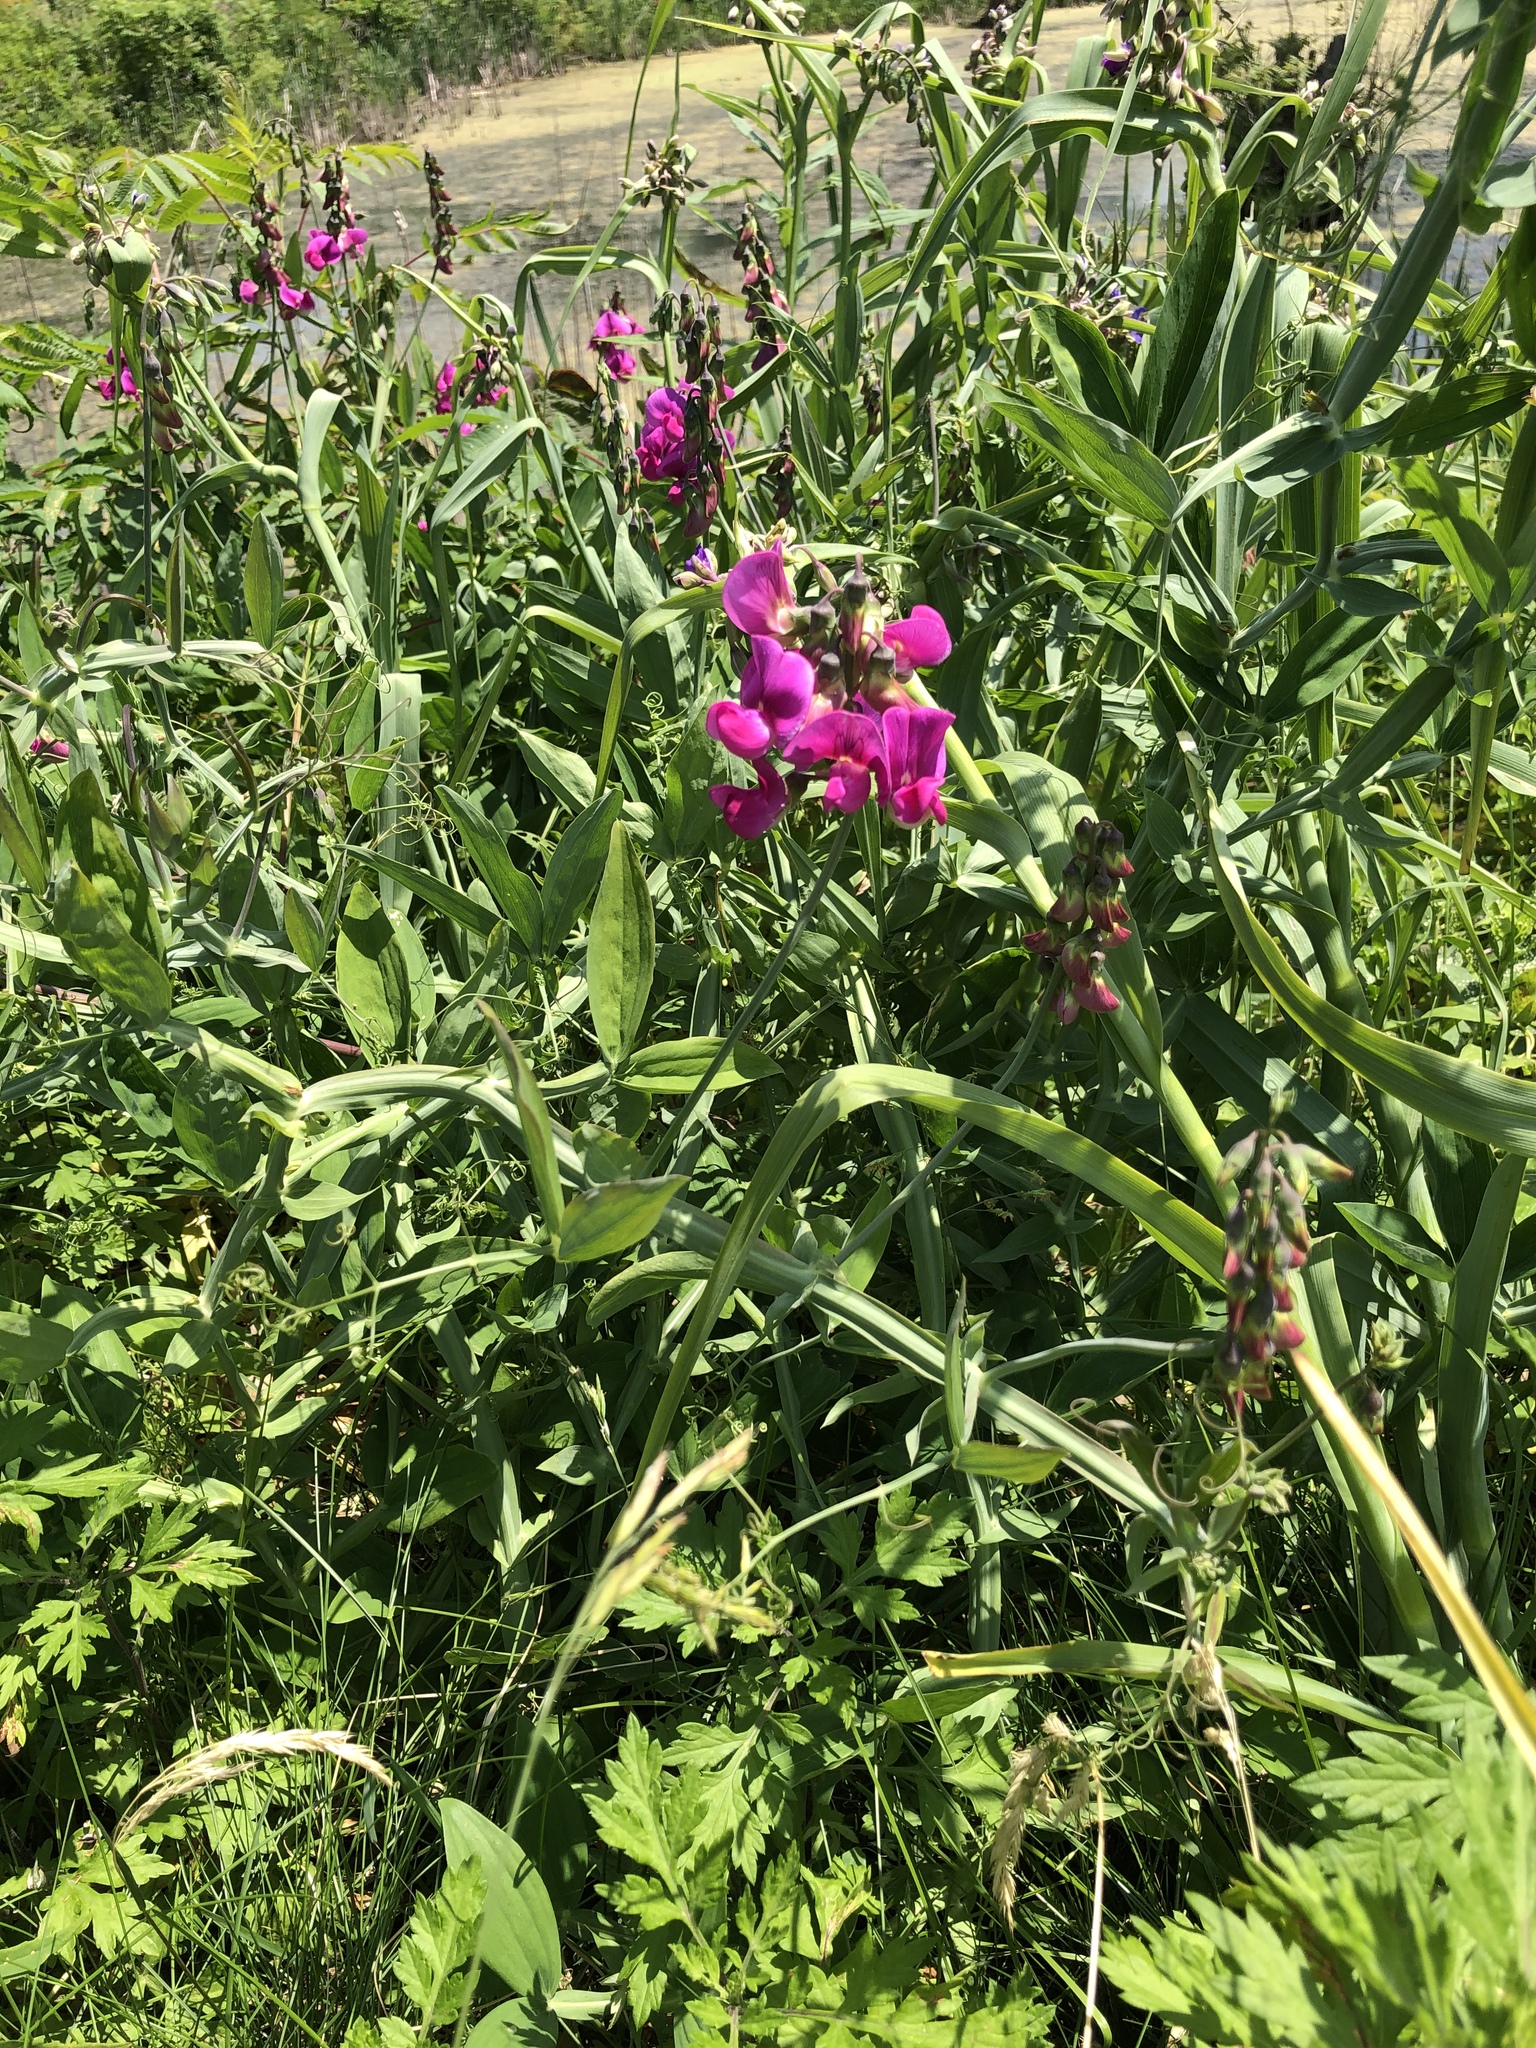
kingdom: Plantae
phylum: Tracheophyta
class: Magnoliopsida
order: Fabales
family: Fabaceae
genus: Lathyrus
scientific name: Lathyrus latifolius
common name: Perennial pea
